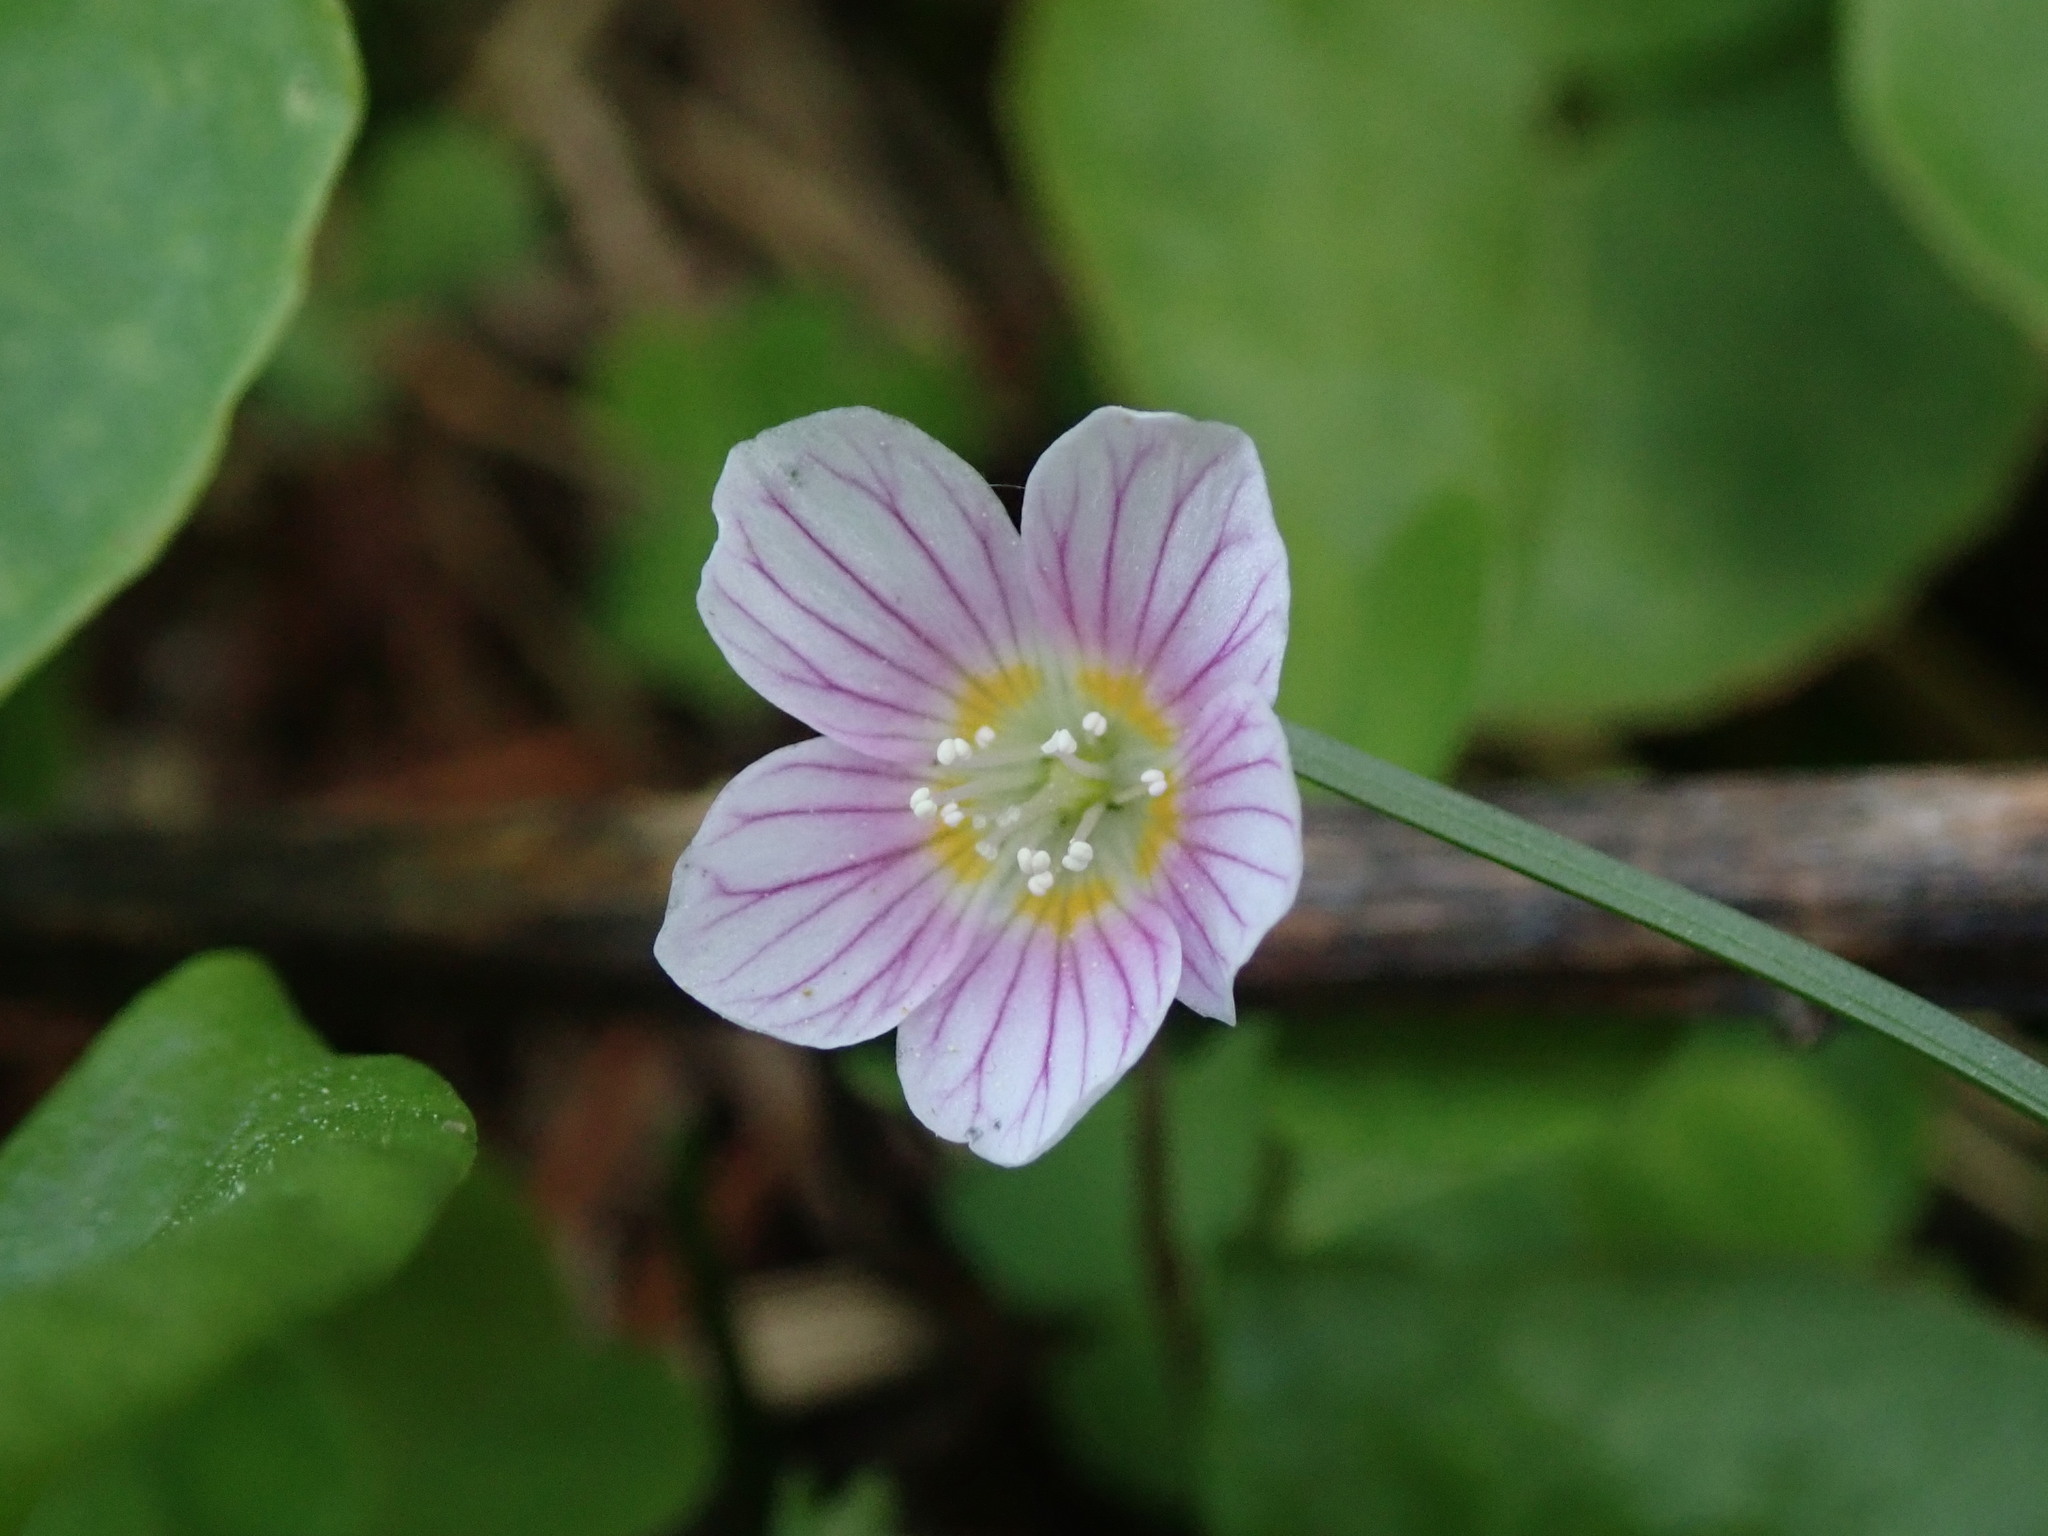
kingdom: Plantae
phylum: Tracheophyta
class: Magnoliopsida
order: Oxalidales
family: Oxalidaceae
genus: Oxalis
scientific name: Oxalis acetosella
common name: Wood-sorrel
